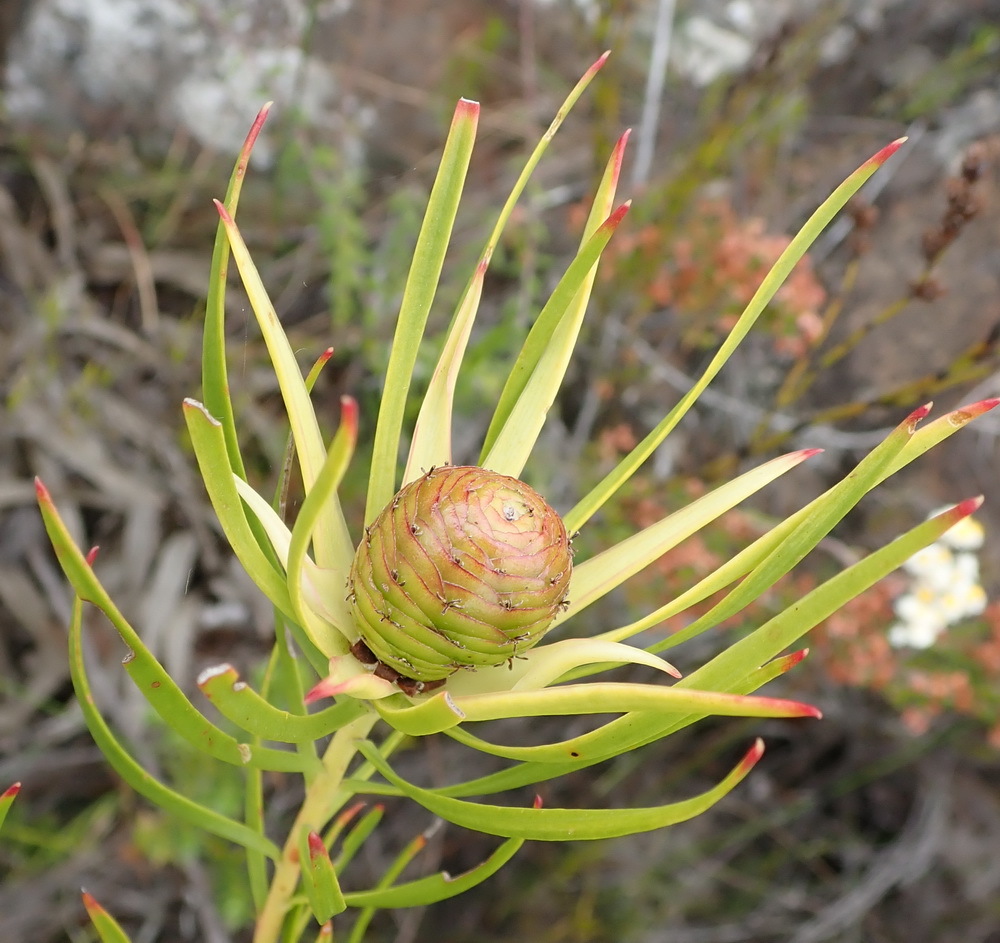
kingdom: Plantae
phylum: Tracheophyta
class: Magnoliopsida
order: Proteales
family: Proteaceae
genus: Leucadendron
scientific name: Leucadendron spissifolium
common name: Spear-leaf conebush
